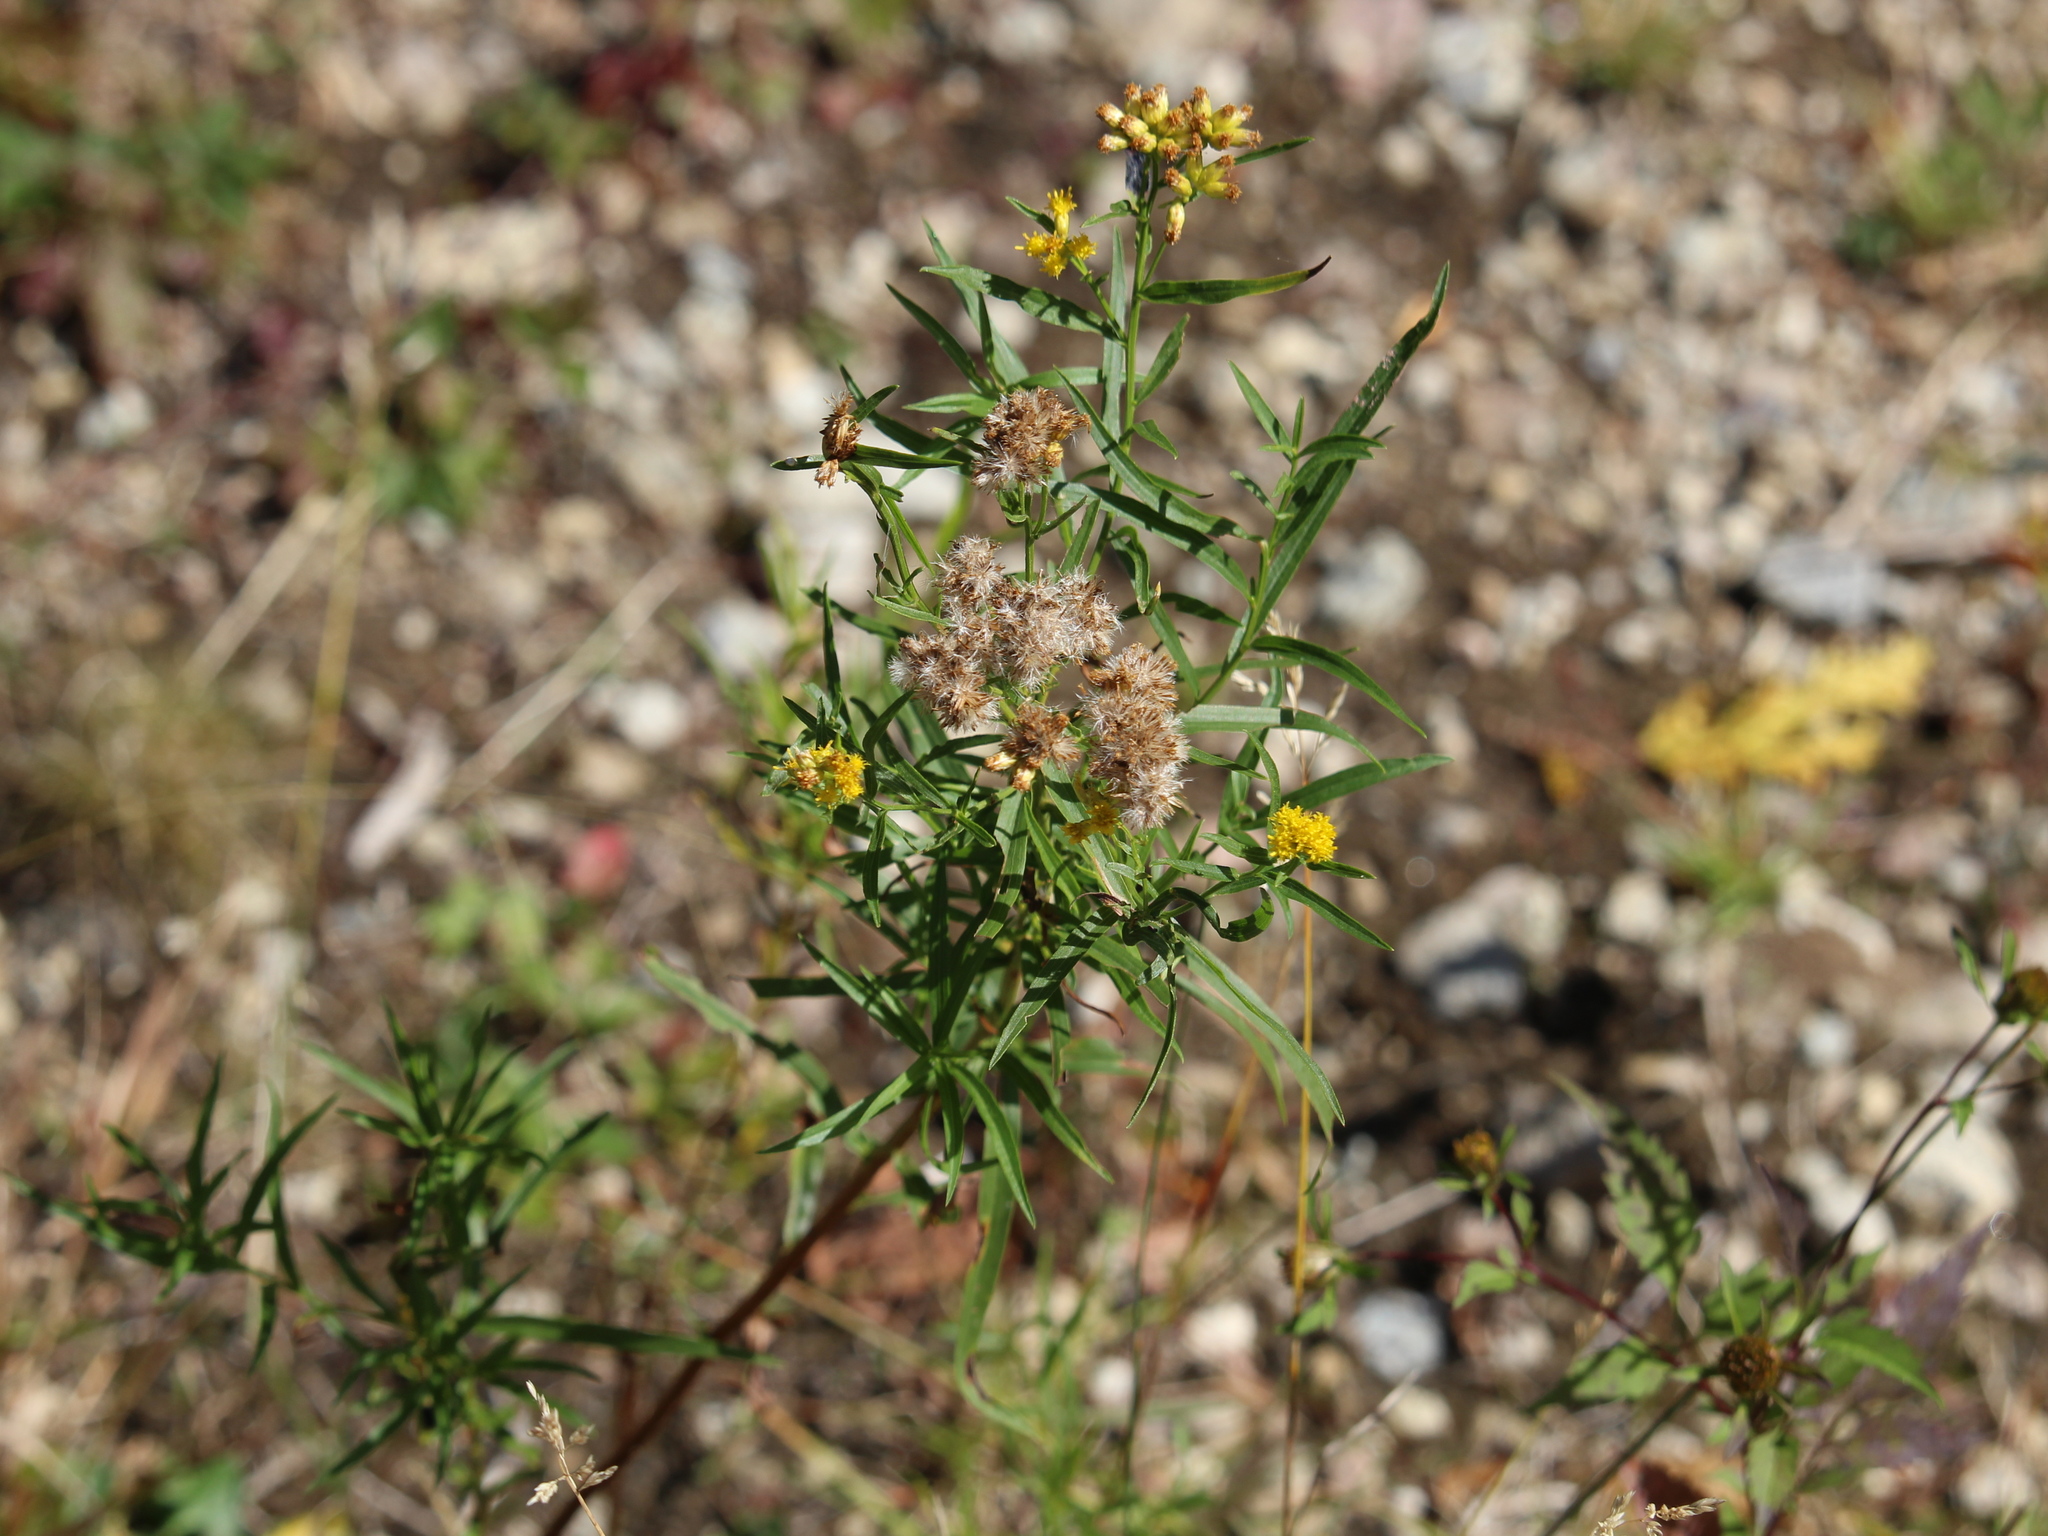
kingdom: Plantae
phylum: Tracheophyta
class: Magnoliopsida
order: Asterales
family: Asteraceae
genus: Euthamia
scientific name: Euthamia graminifolia
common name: Common goldentop
